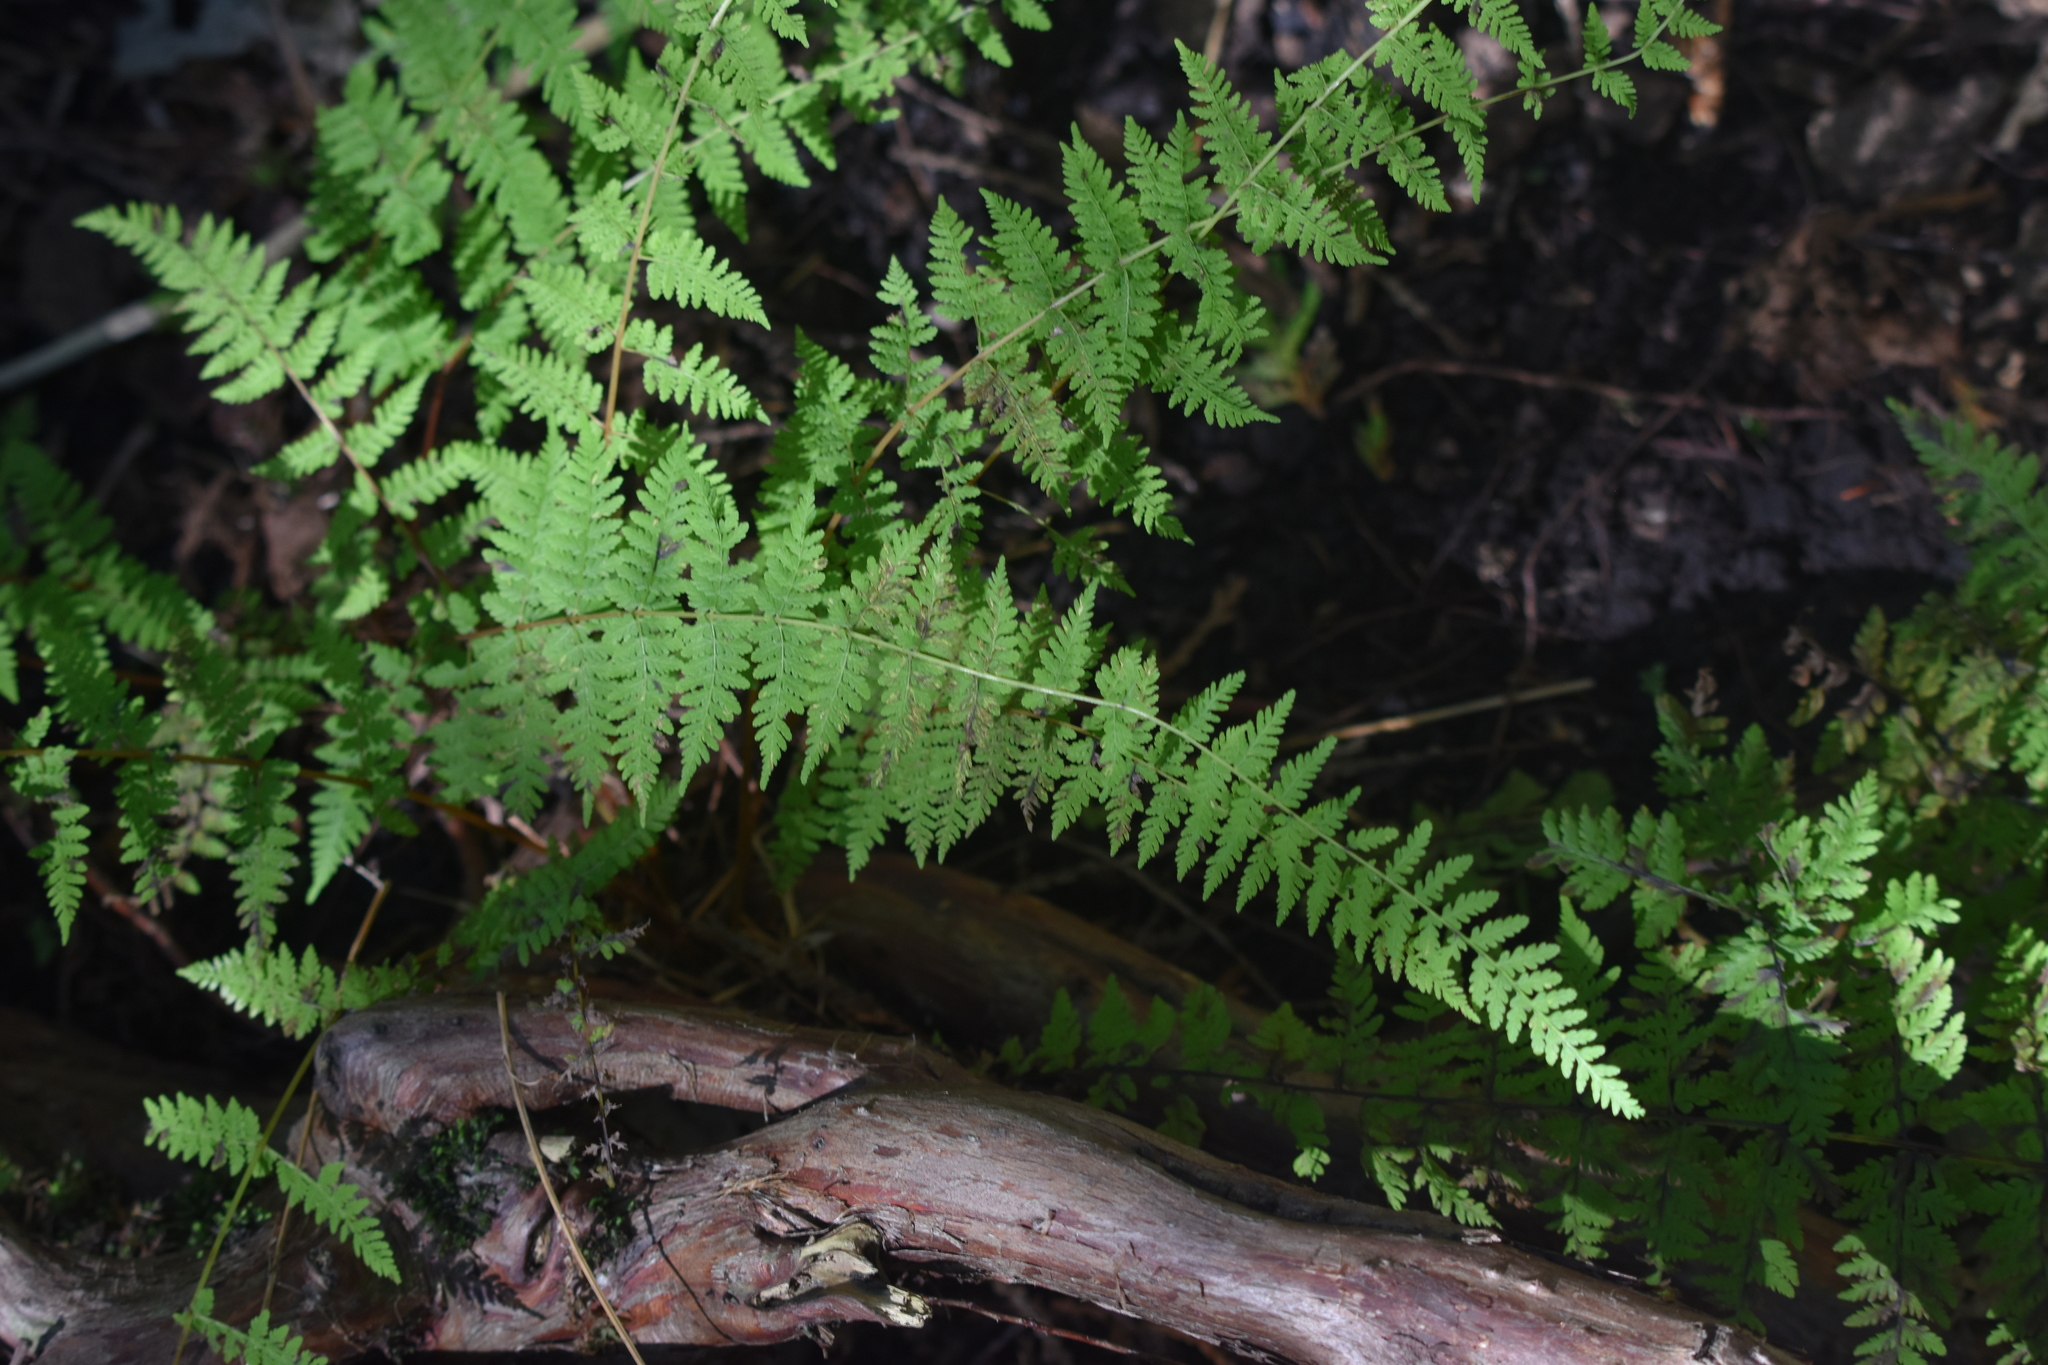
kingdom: Plantae
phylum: Tracheophyta
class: Polypodiopsida
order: Polypodiales
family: Cystopteridaceae
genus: Cystopteris
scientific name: Cystopteris bulbifera
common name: Bulblet bladder fern
